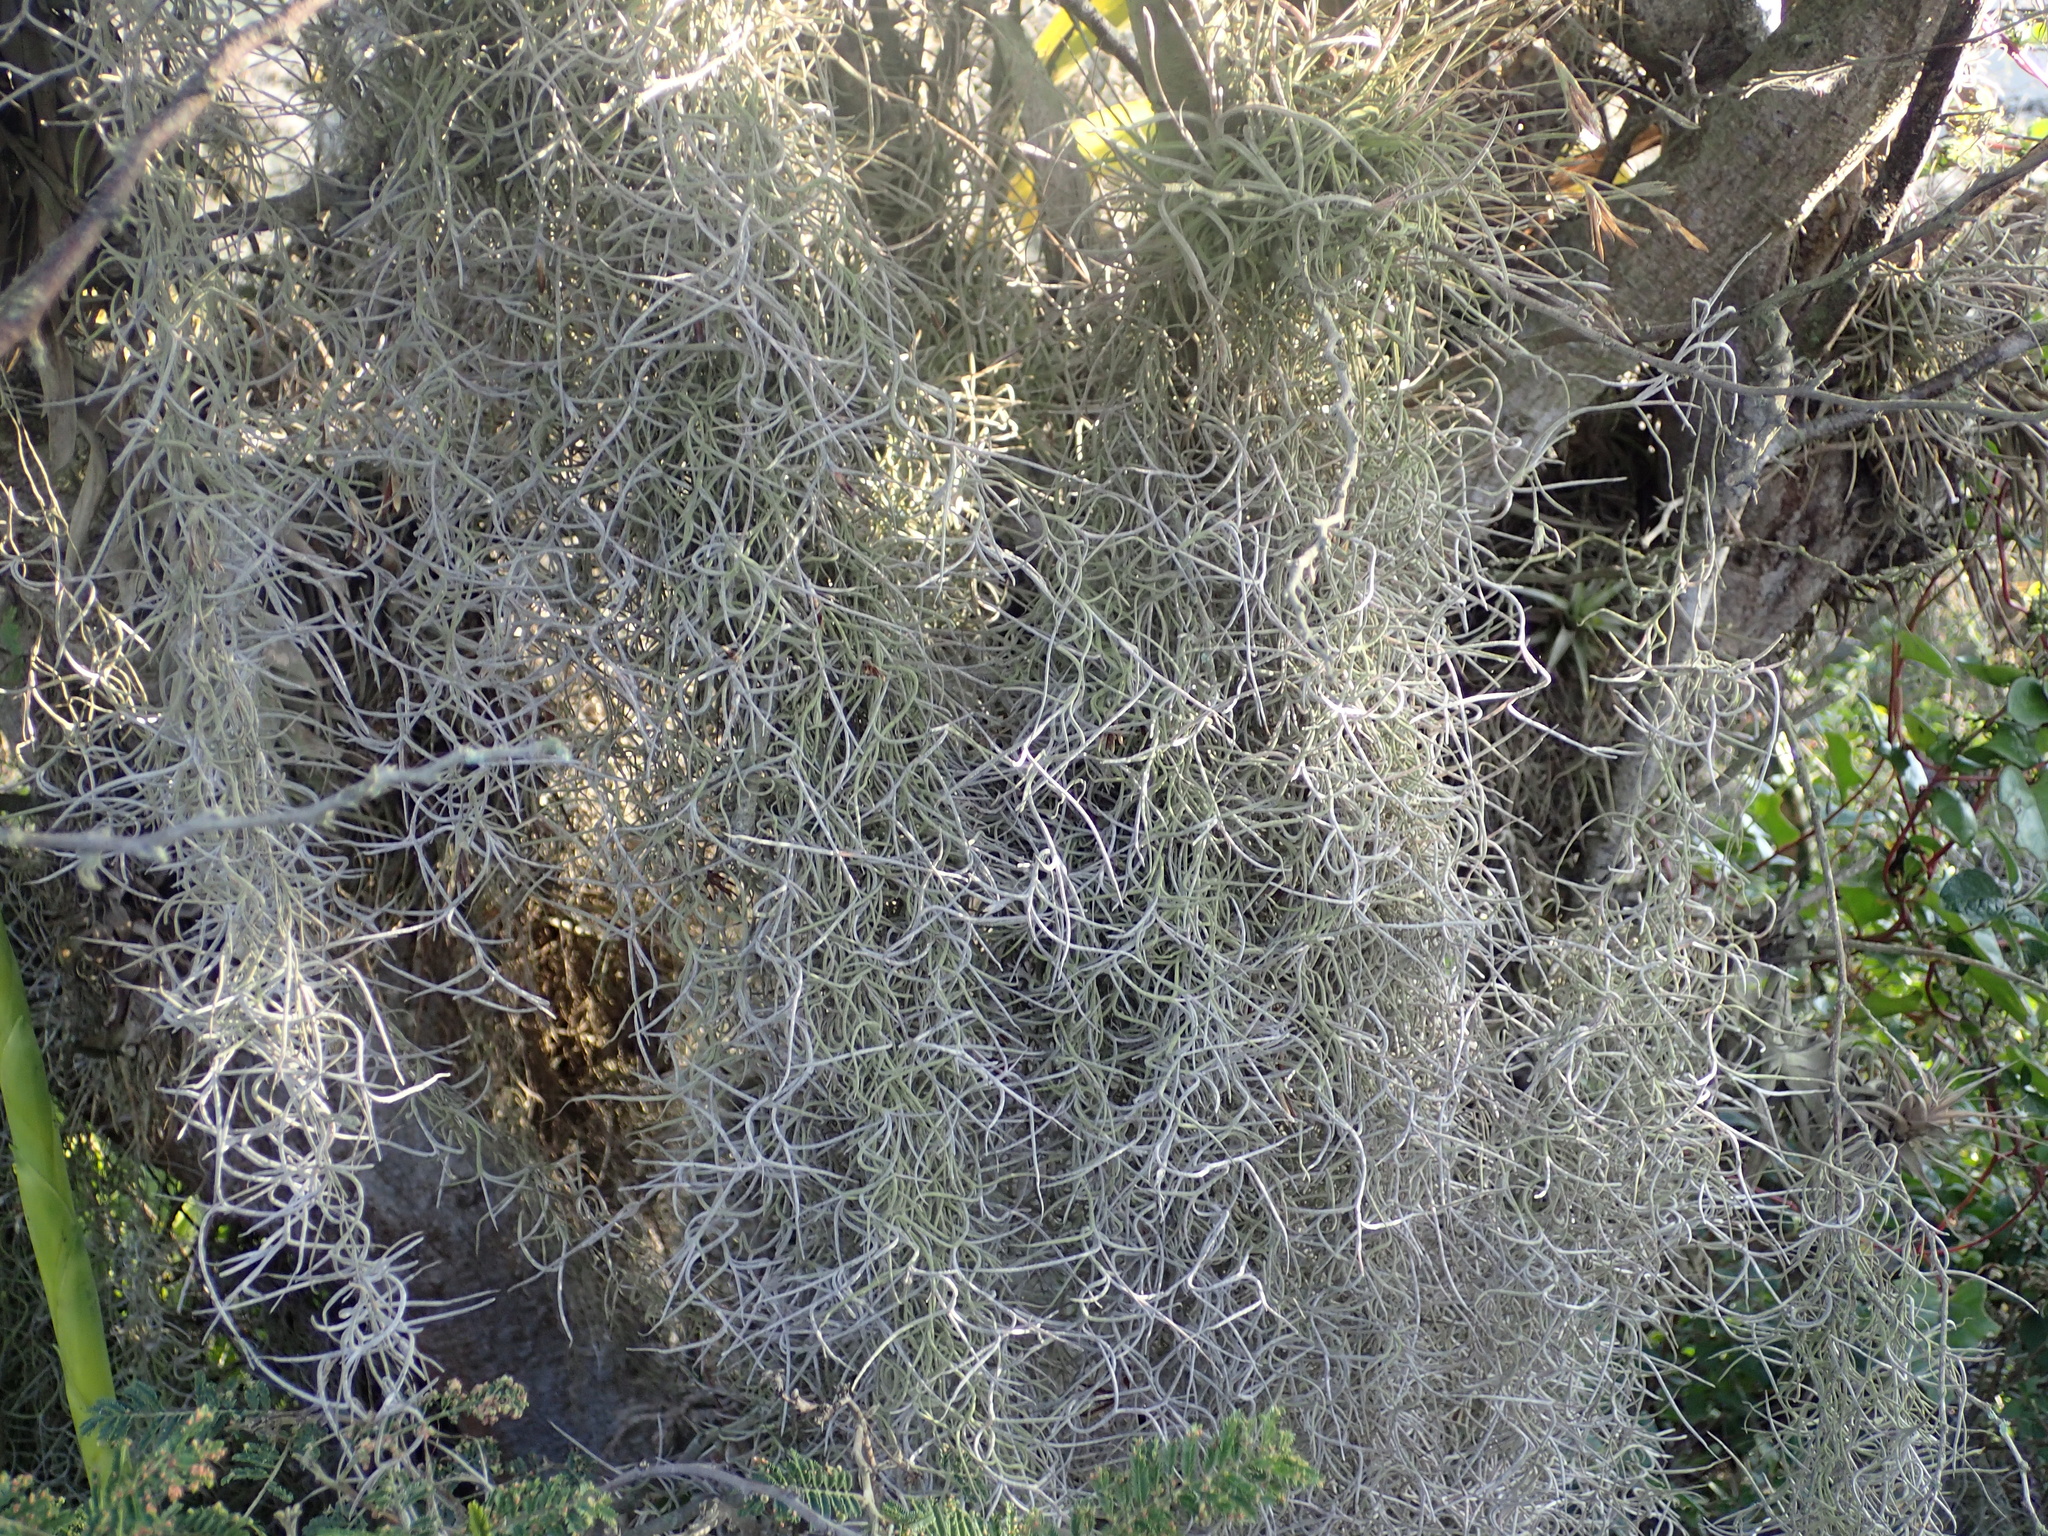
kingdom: Plantae
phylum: Tracheophyta
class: Liliopsida
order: Poales
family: Bromeliaceae
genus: Tillandsia
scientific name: Tillandsia usneoides
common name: Spanish moss
